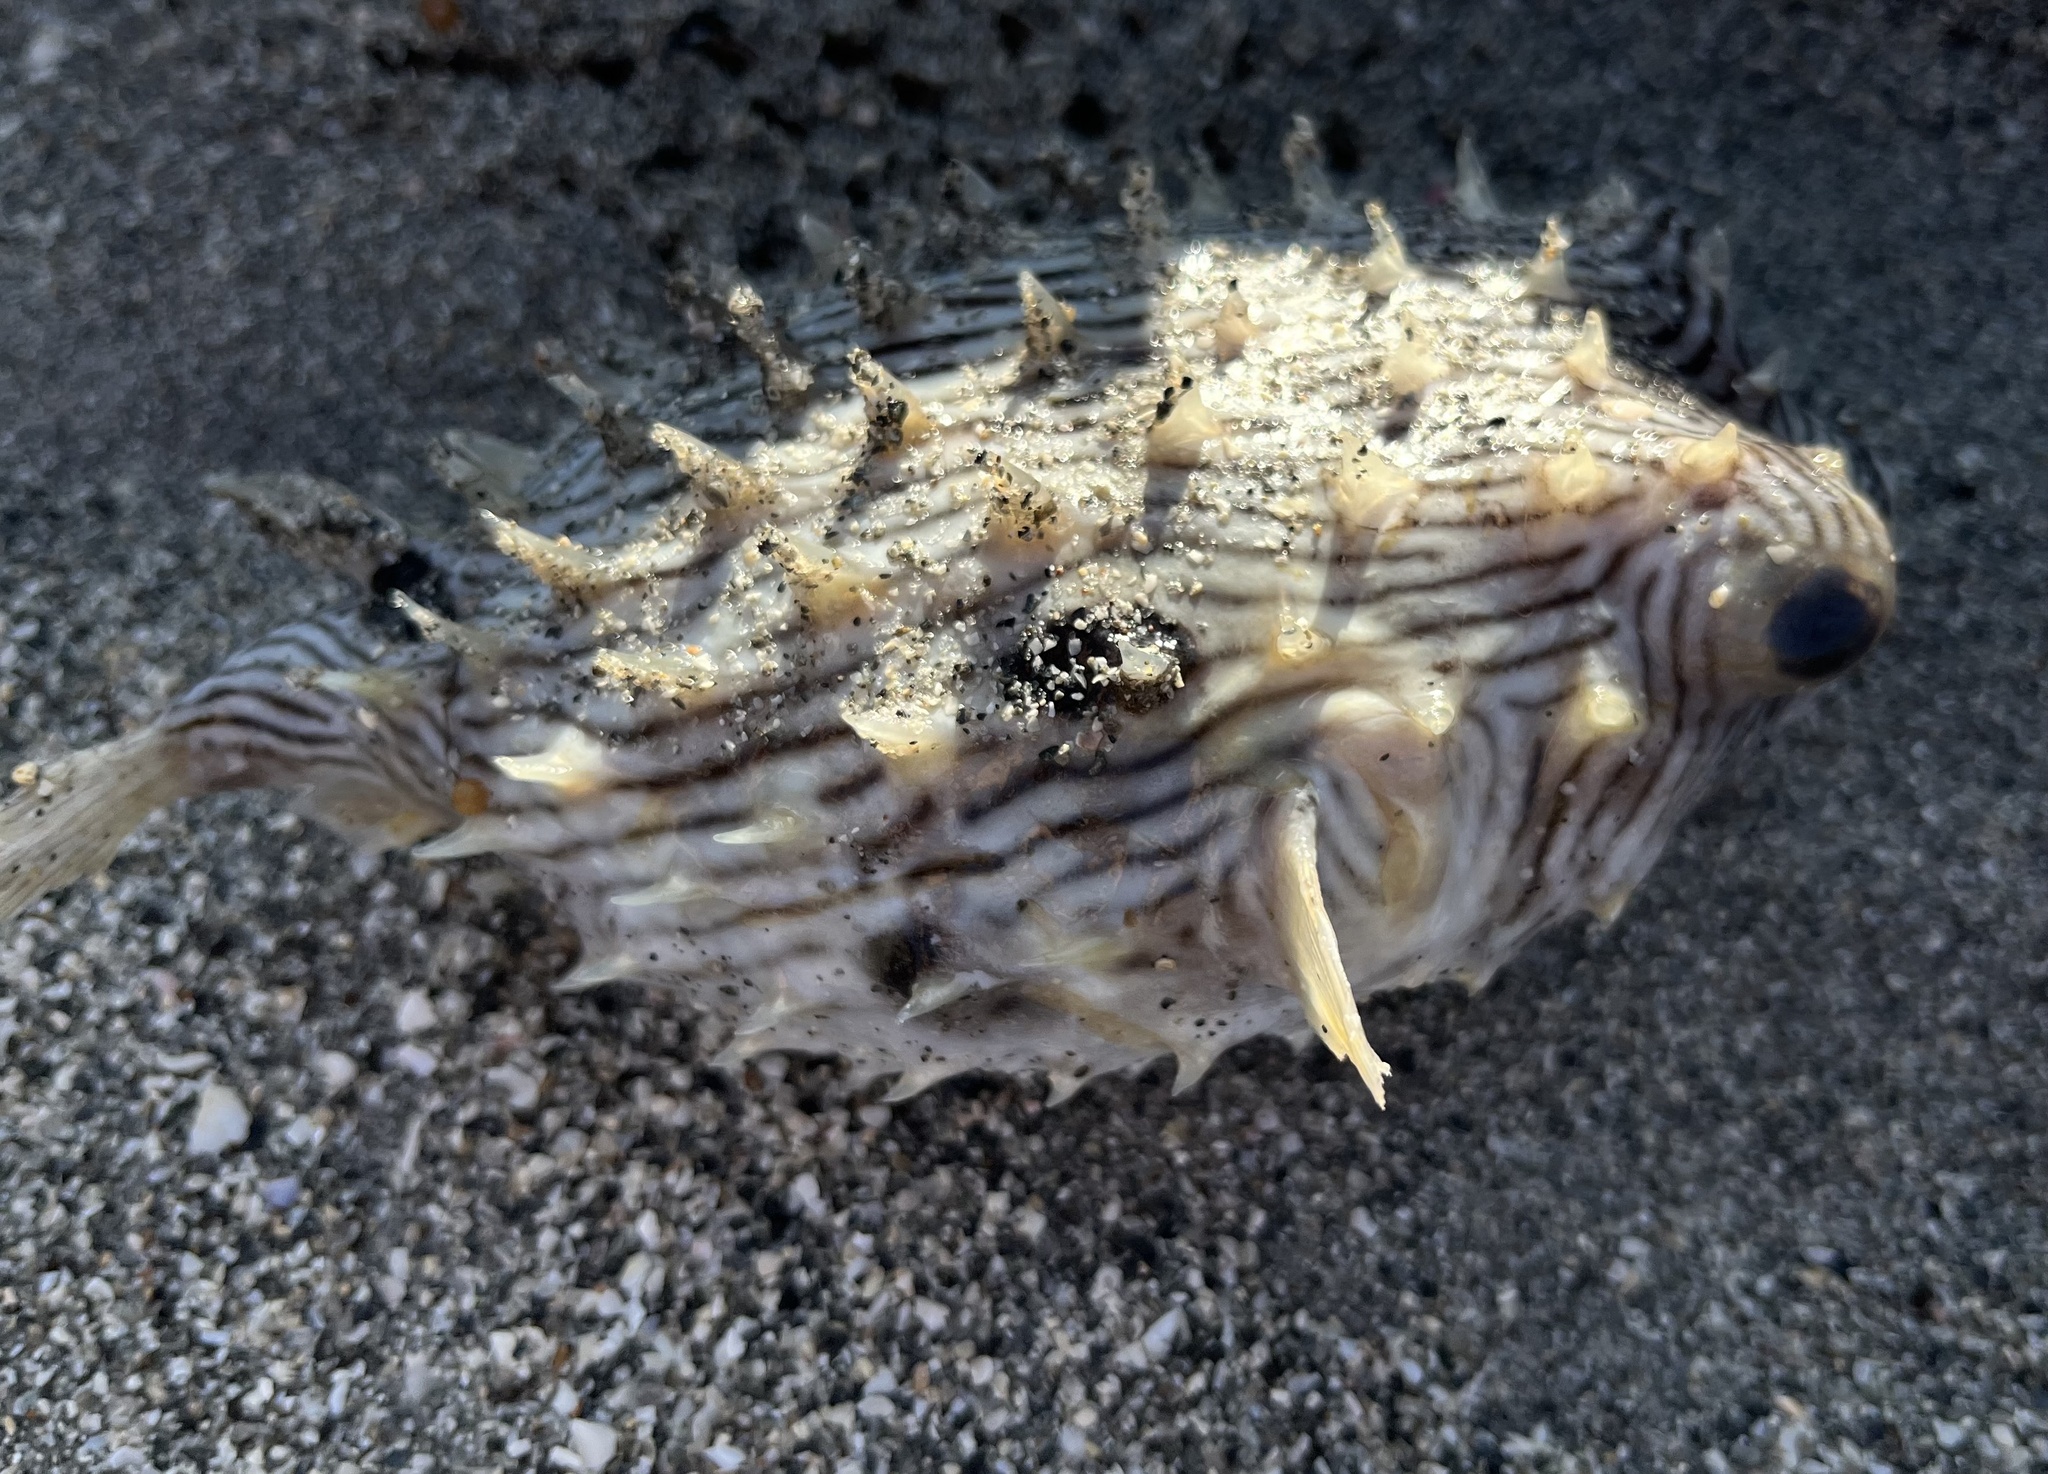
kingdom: Animalia
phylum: Chordata
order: Tetraodontiformes
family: Diodontidae
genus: Chilomycterus
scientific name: Chilomycterus schoepfii
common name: Striped burrfish
